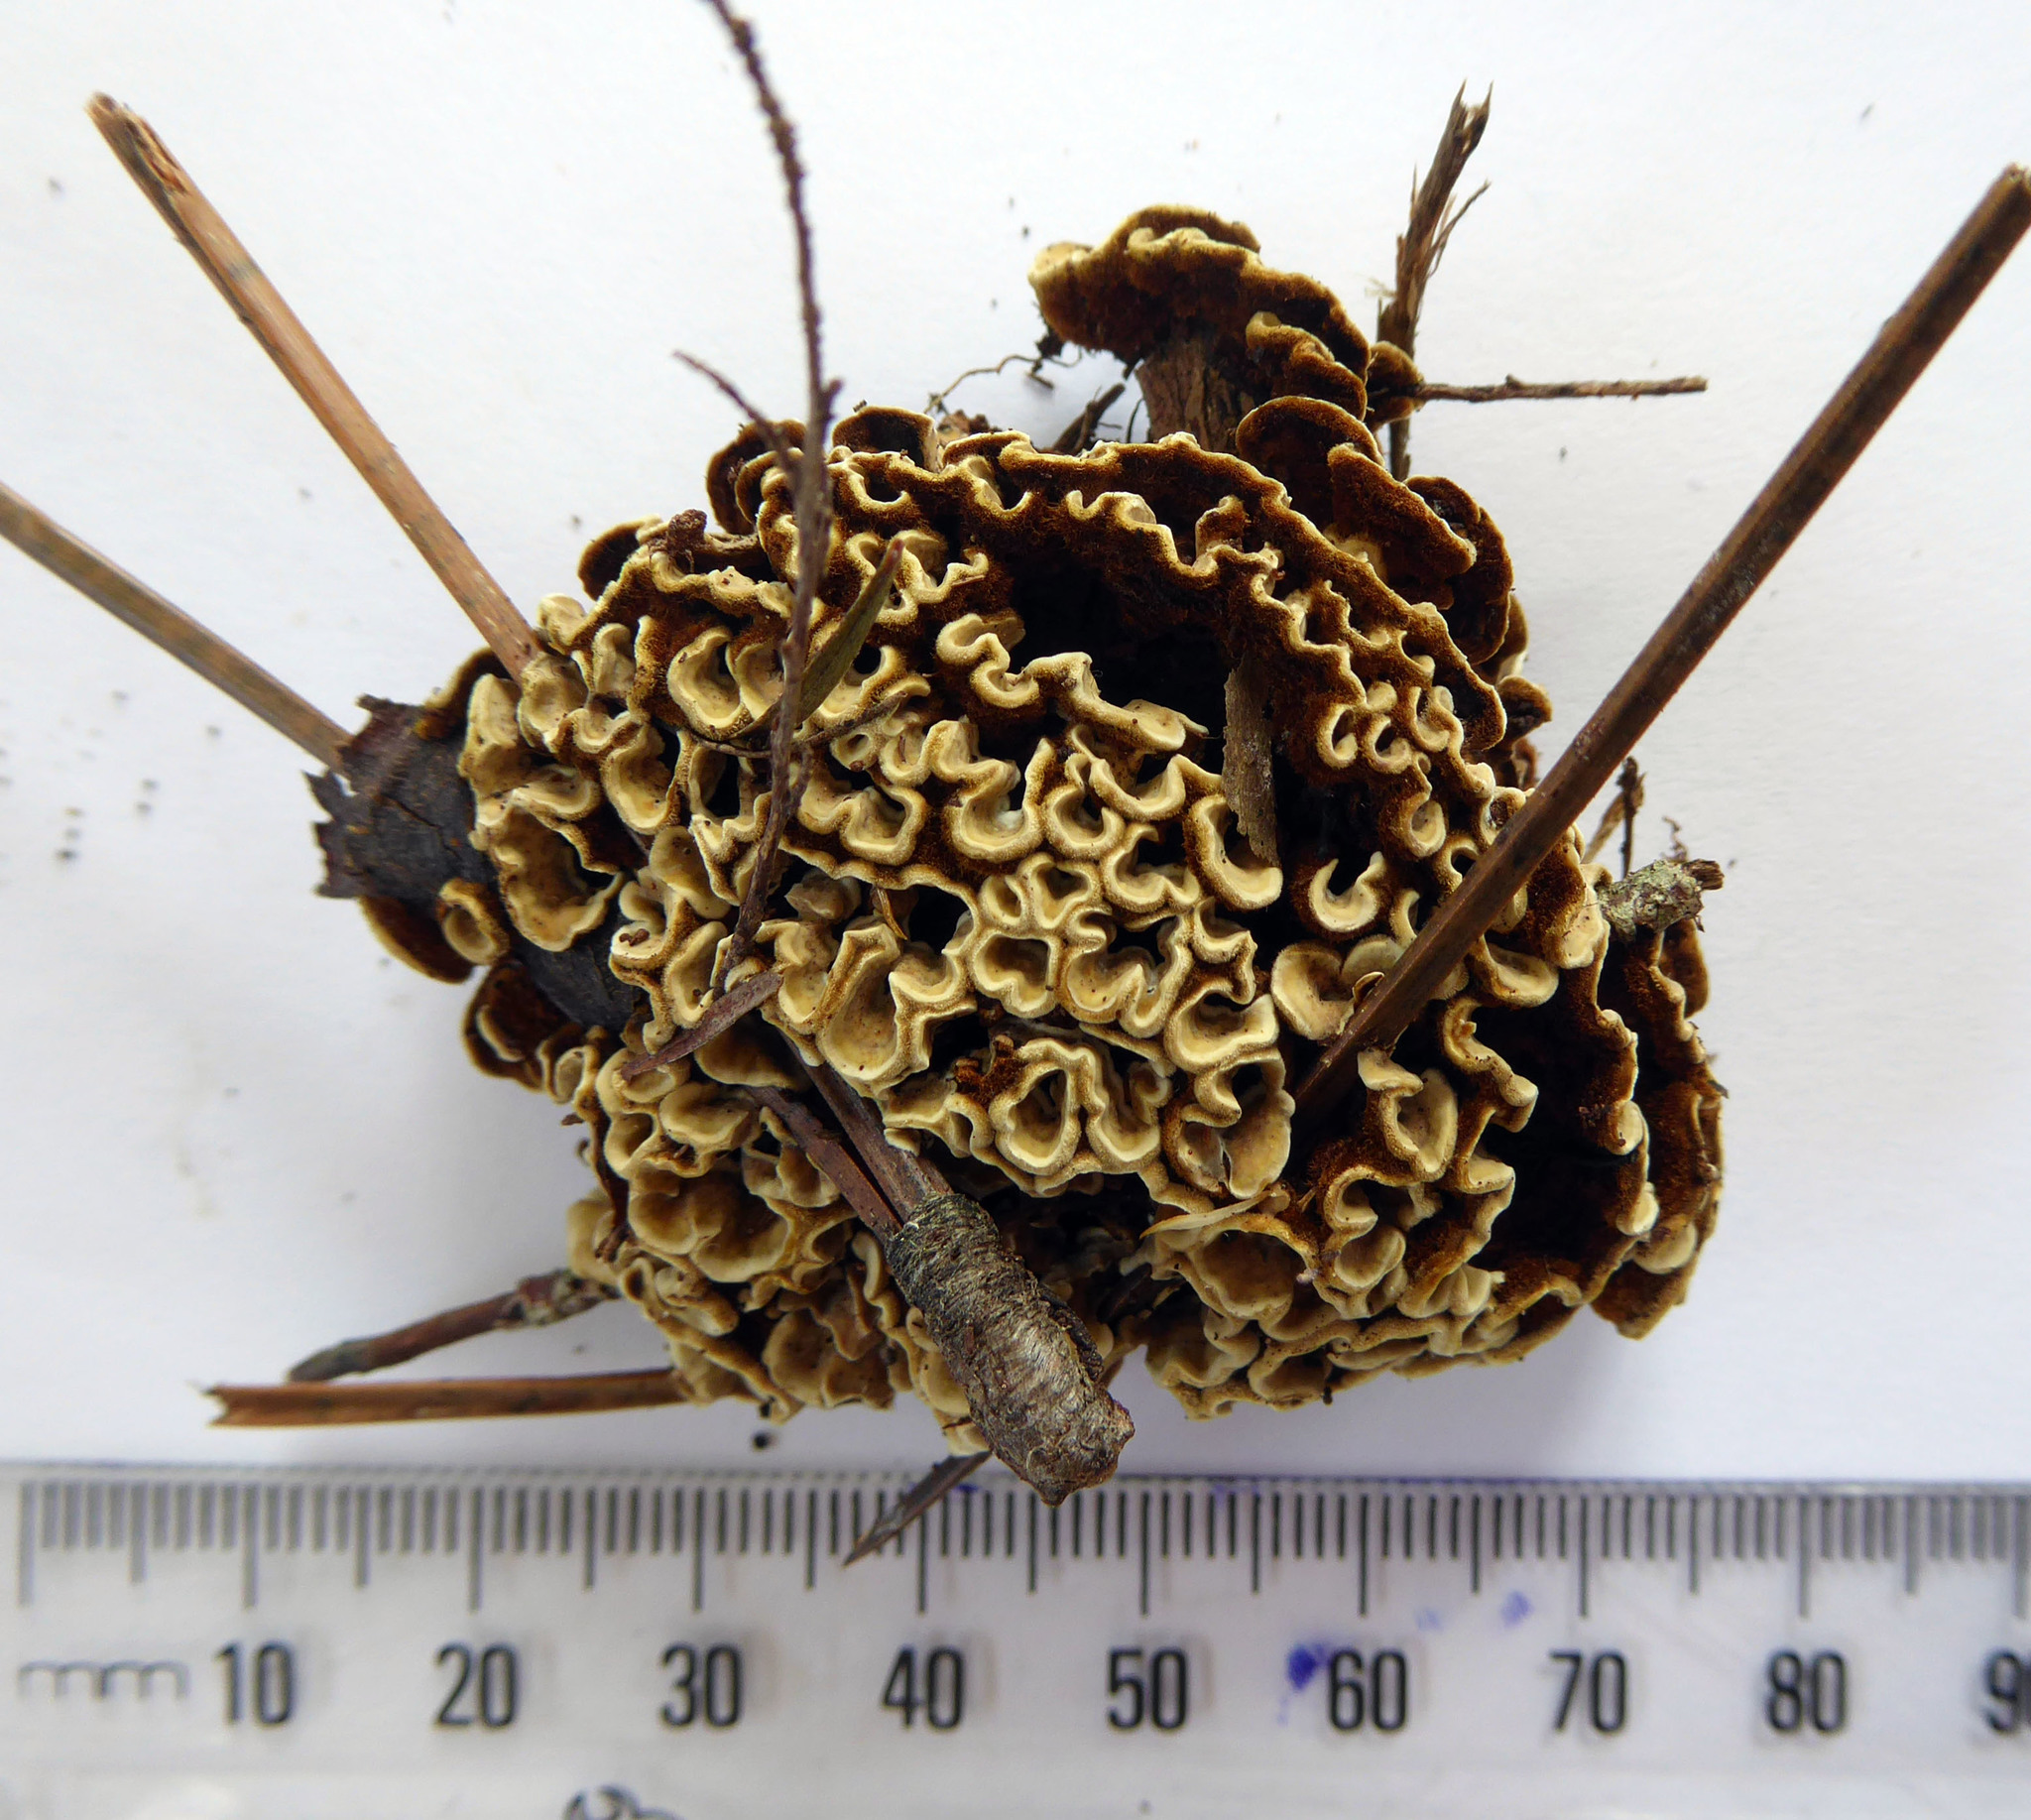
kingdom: Fungi
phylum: Basidiomycota
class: Agaricomycetes
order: Russulales
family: Stereaceae
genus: Stereum
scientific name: Stereum hirsutum
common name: Hairy curtain crust
